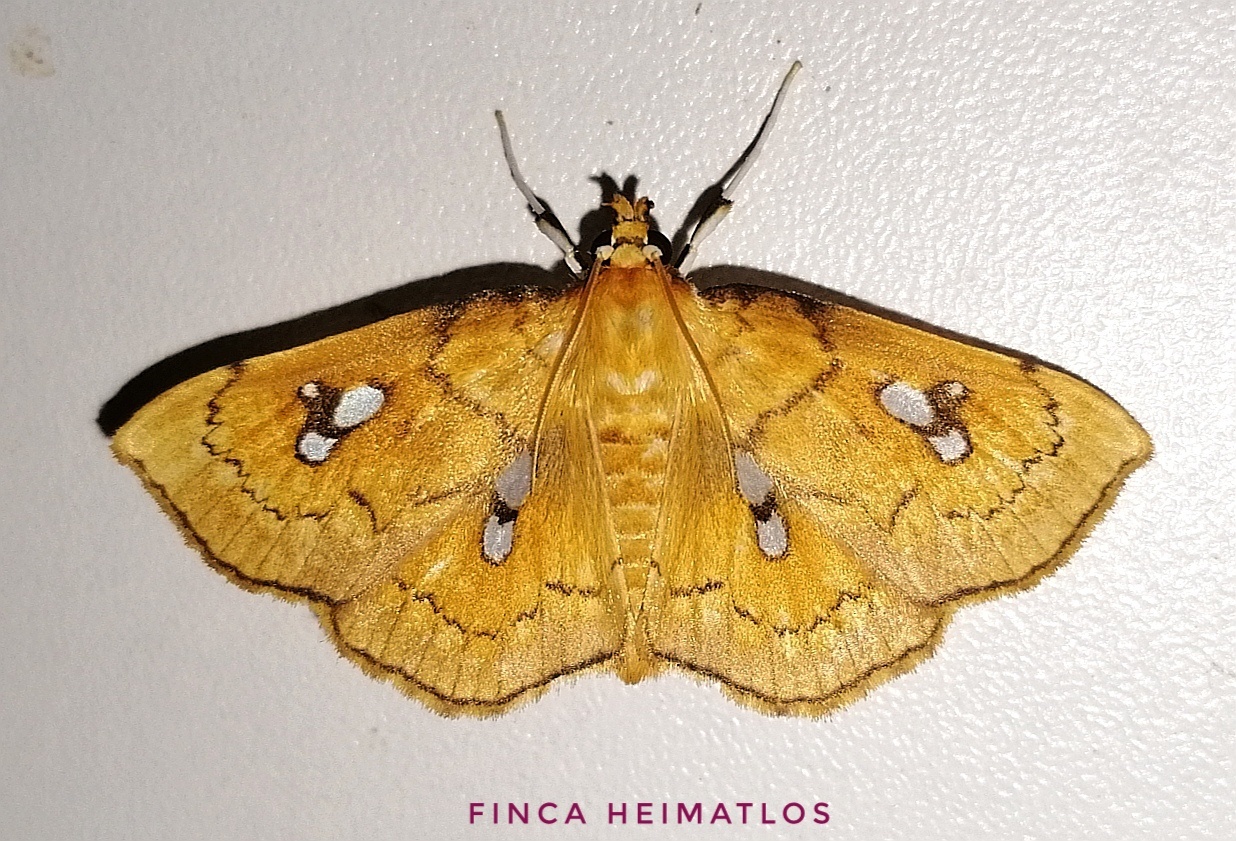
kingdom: Animalia
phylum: Arthropoda
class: Insecta
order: Lepidoptera
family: Crambidae
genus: Cacographis
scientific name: Cacographis osteolalis
